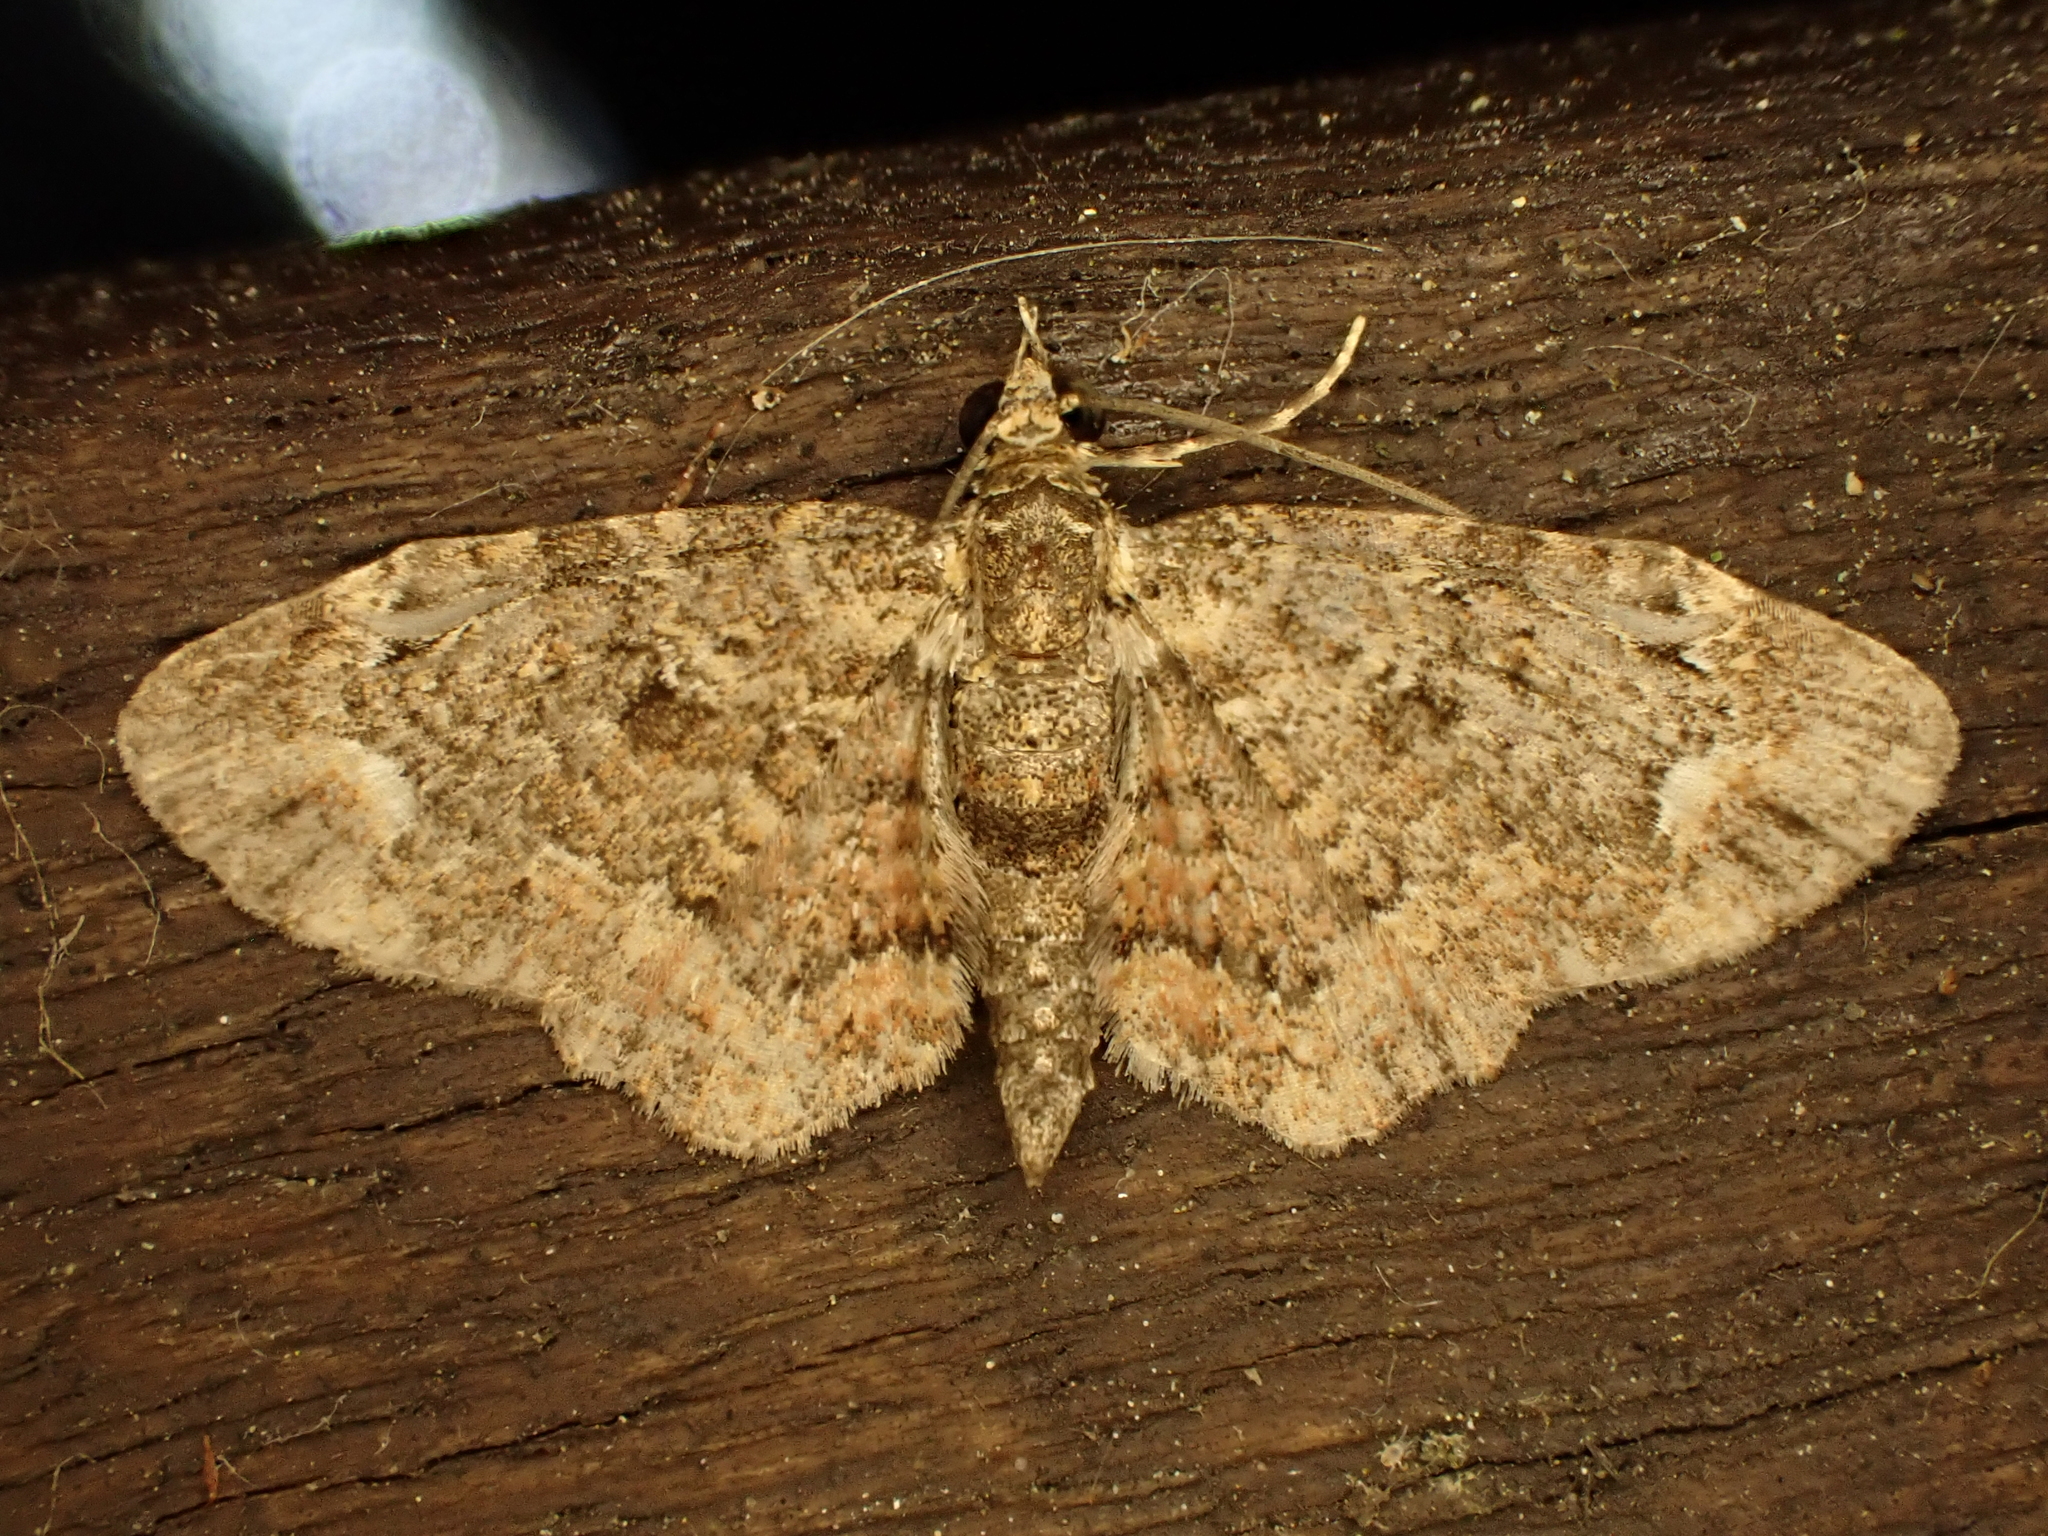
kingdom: Animalia
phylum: Arthropoda
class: Insecta
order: Lepidoptera
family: Geometridae
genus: Pasiphilodes
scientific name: Pasiphilodes testulata
